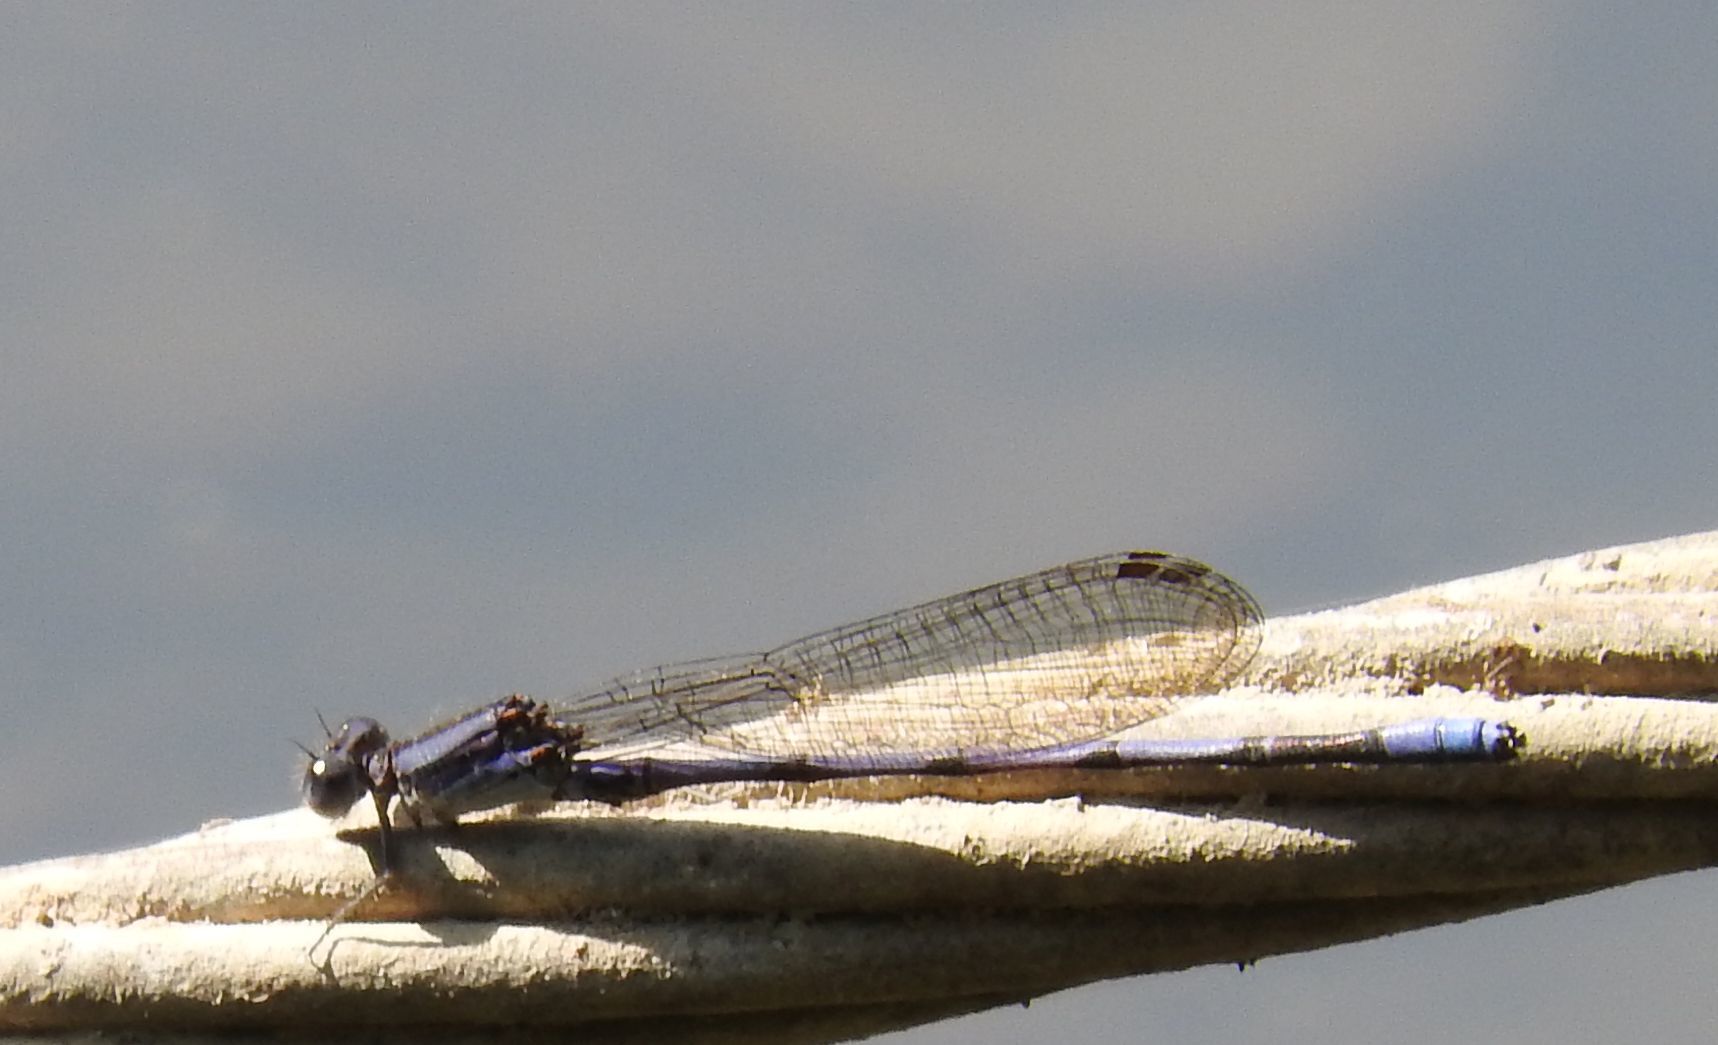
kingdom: Animalia
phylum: Arthropoda
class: Insecta
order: Odonata
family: Coenagrionidae
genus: Argia
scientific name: Argia fumipennis
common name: Variable dancer
